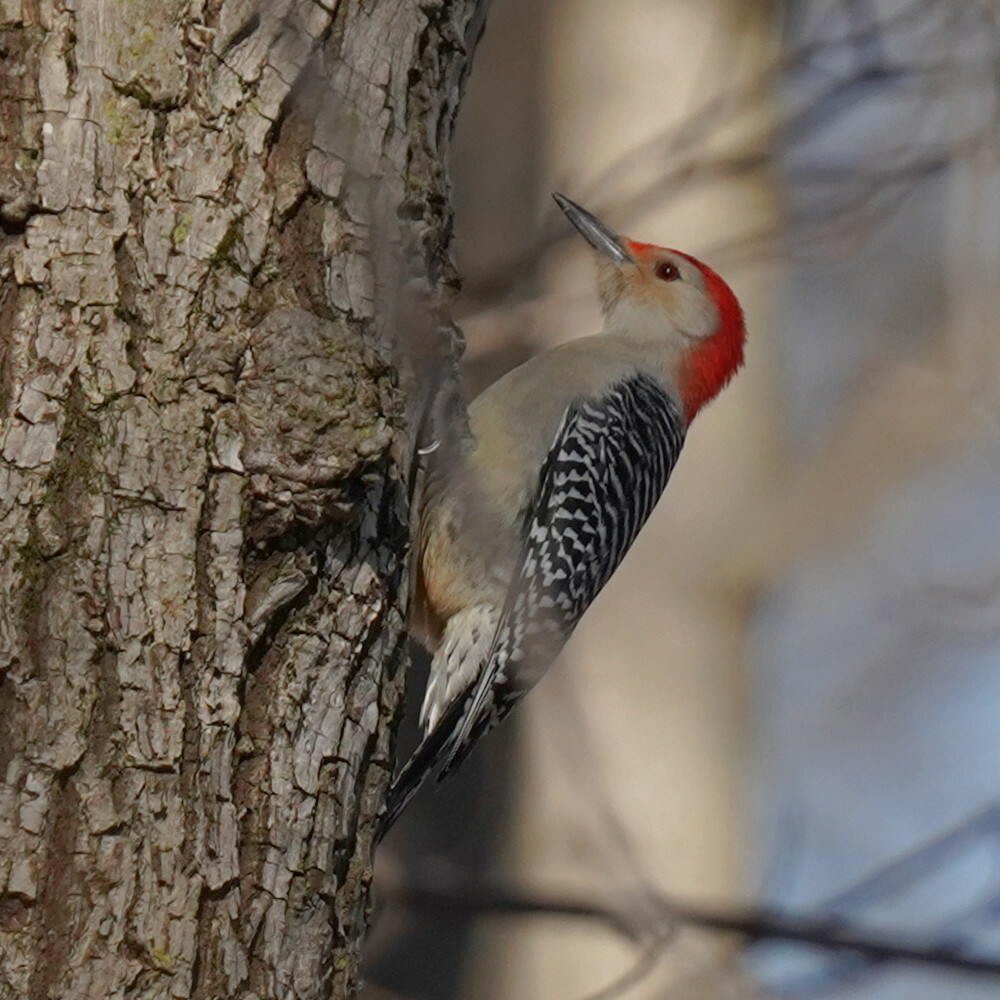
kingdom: Animalia
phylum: Chordata
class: Aves
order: Piciformes
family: Picidae
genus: Melanerpes
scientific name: Melanerpes carolinus
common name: Red-bellied woodpecker
